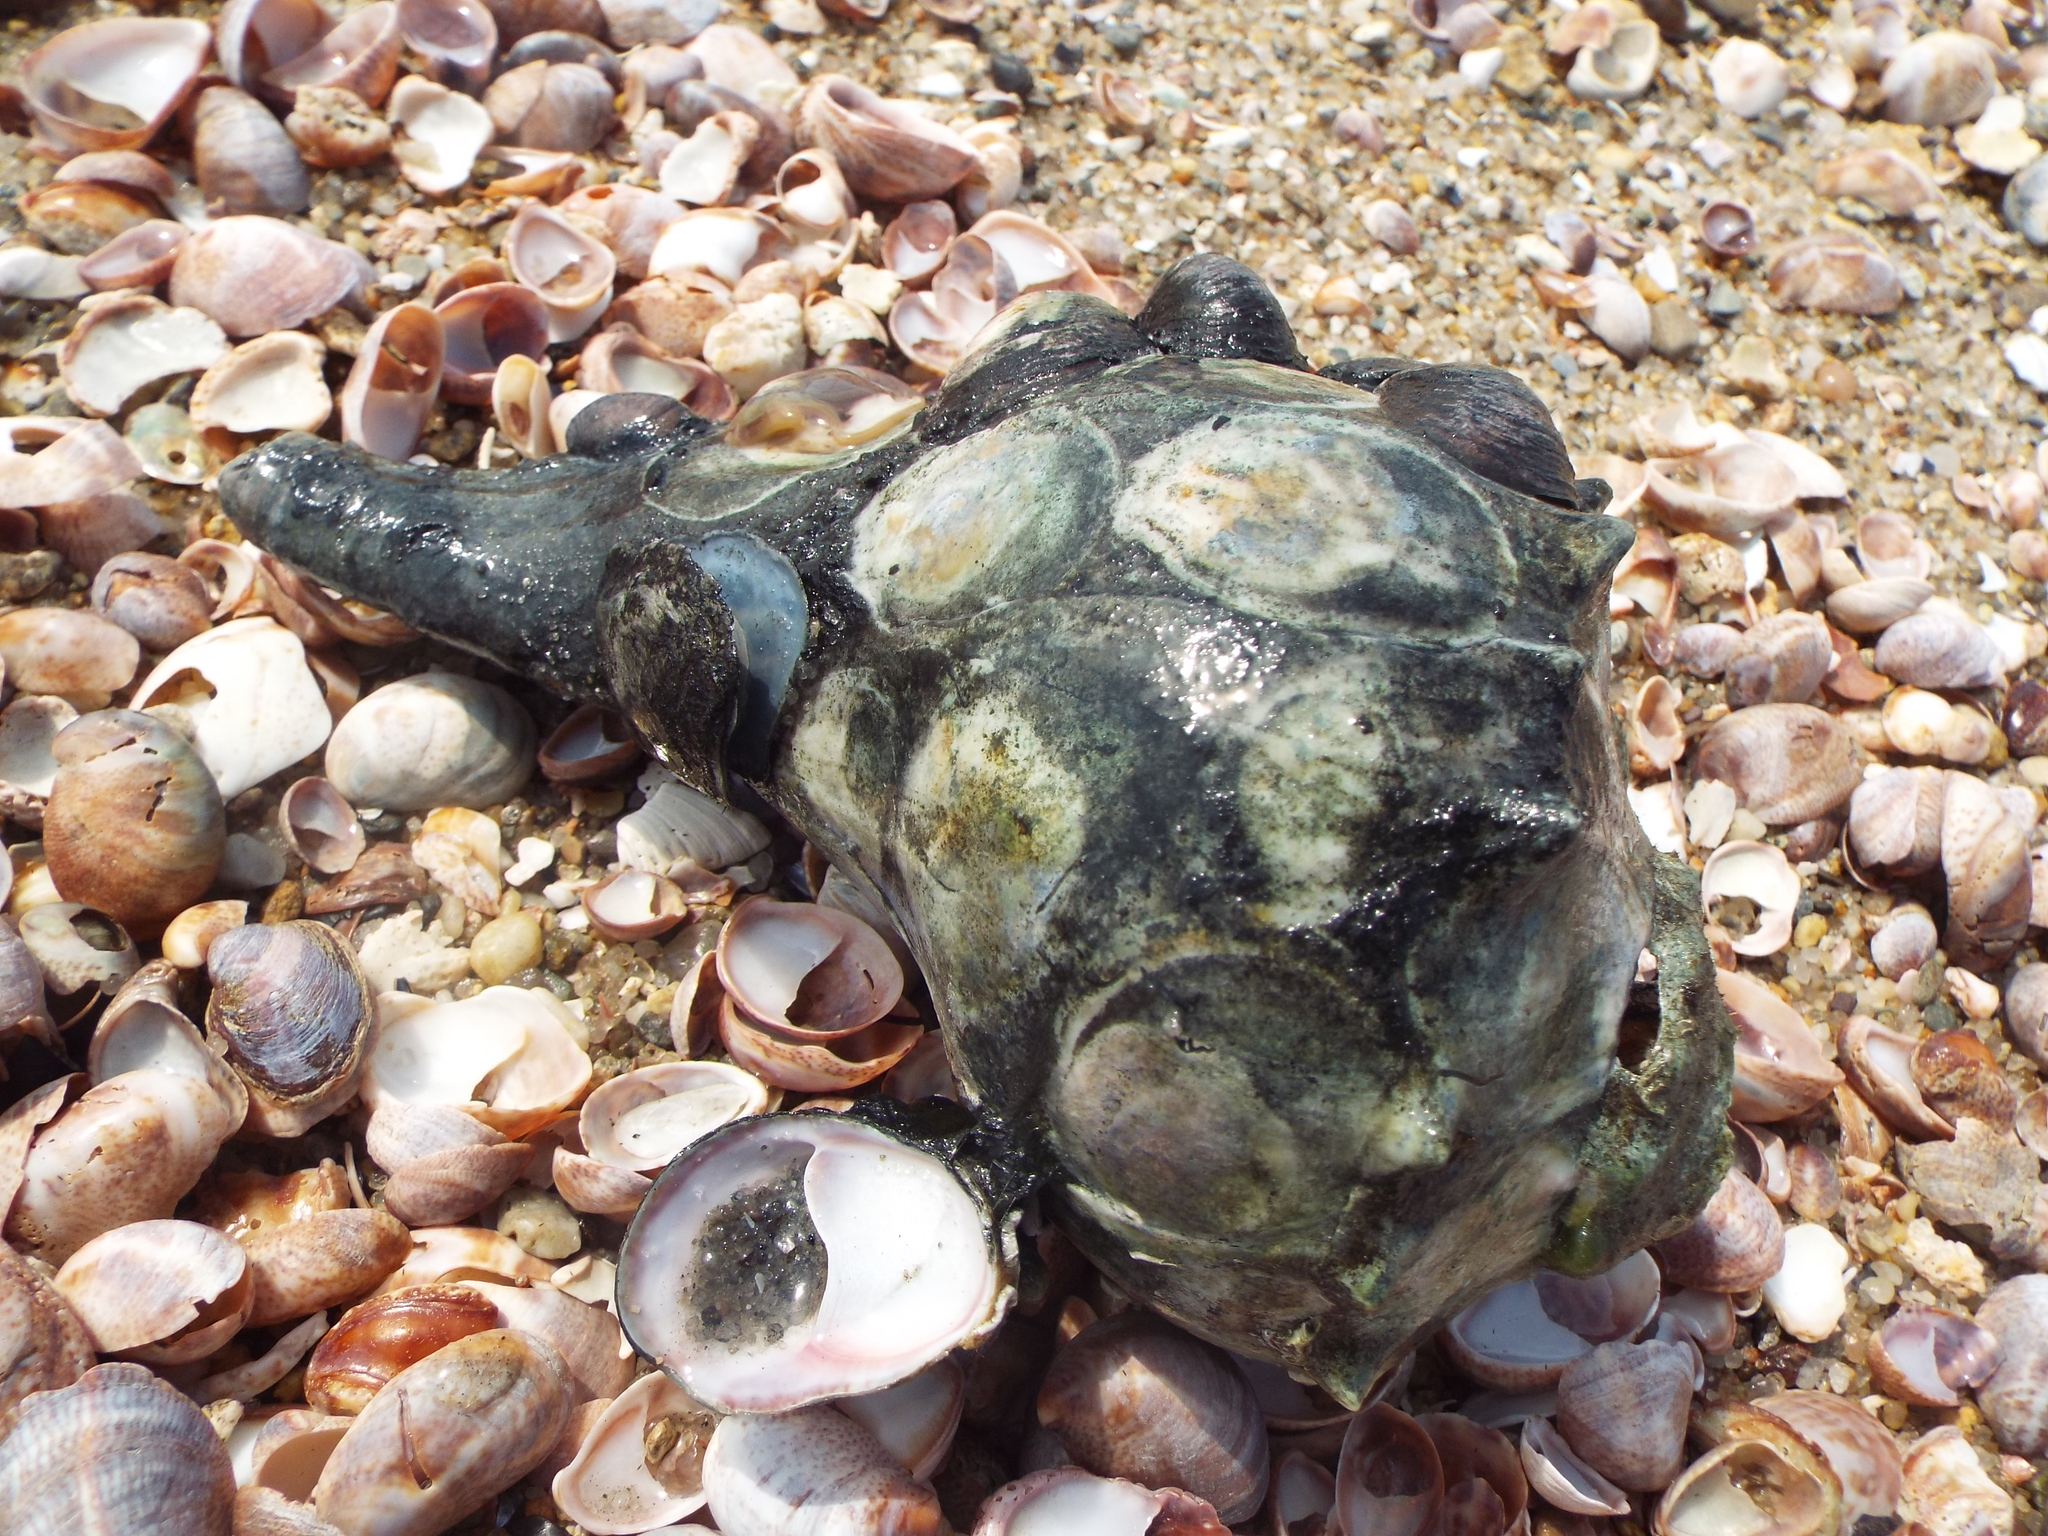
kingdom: Animalia
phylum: Mollusca
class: Gastropoda
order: Neogastropoda
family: Busyconidae
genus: Busycon
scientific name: Busycon carica
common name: Knobbed whelk
